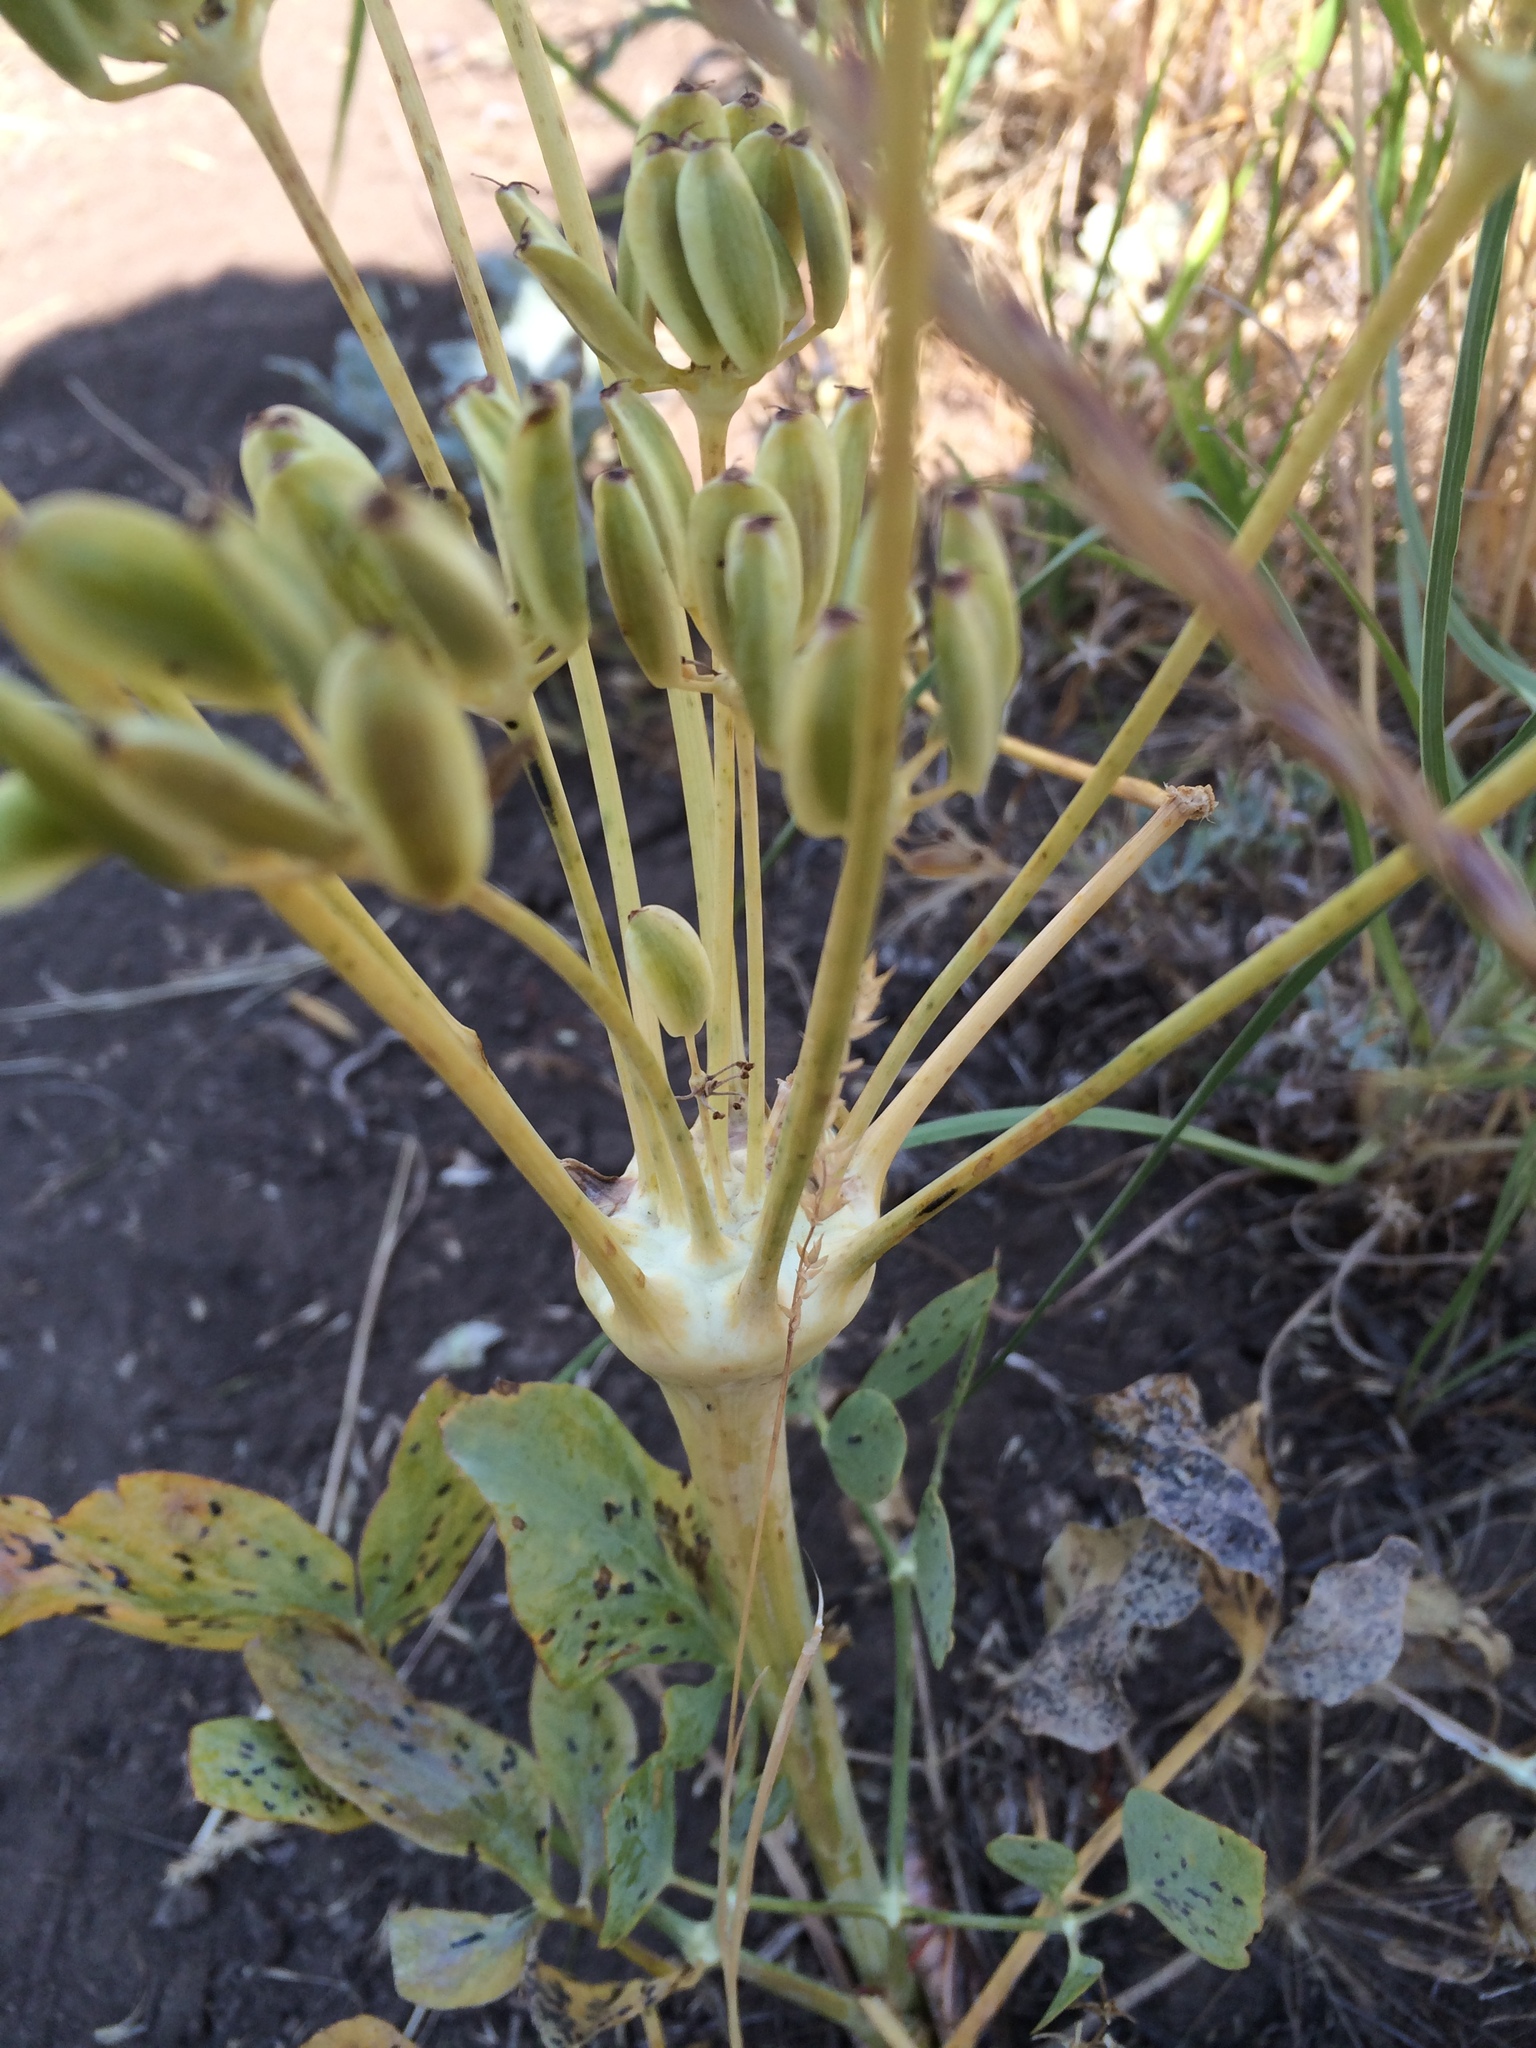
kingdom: Plantae
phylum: Tracheophyta
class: Magnoliopsida
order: Apiales
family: Apiaceae
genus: Lomatium
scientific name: Lomatium nudicaule
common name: Pestle lomatium
